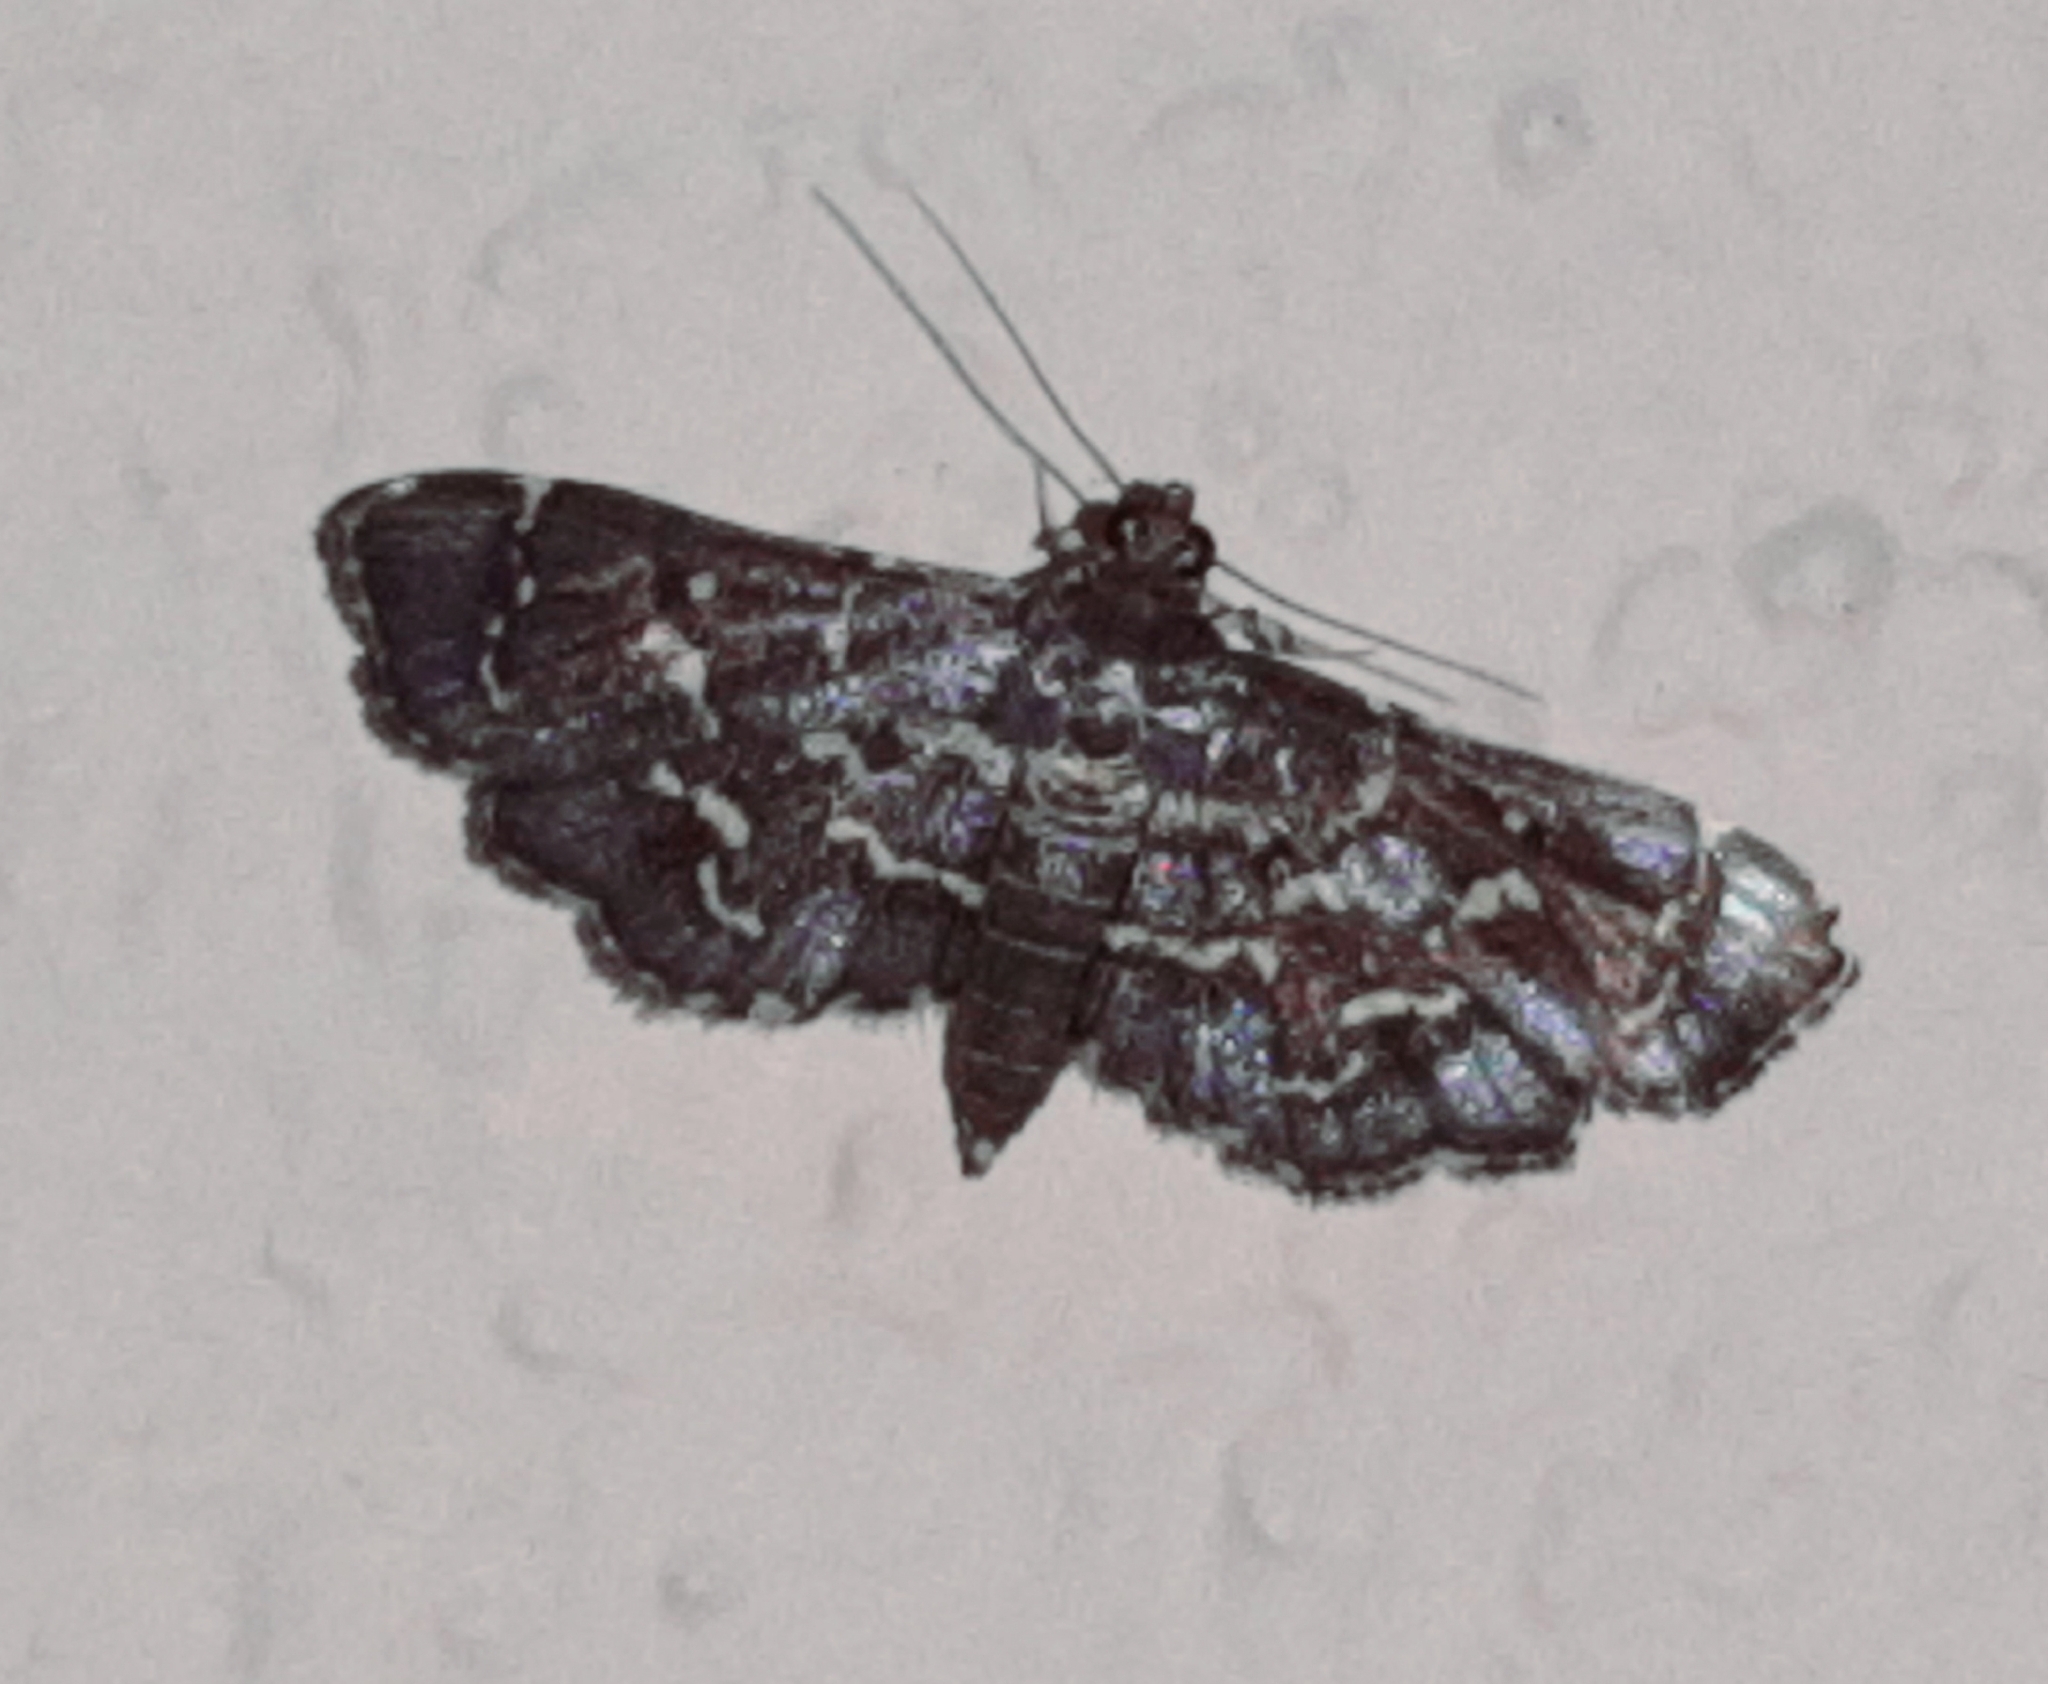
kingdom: Animalia
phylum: Arthropoda
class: Insecta
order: Lepidoptera
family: Crambidae
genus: Eurrhyparodes
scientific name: Eurrhyparodes splendens
